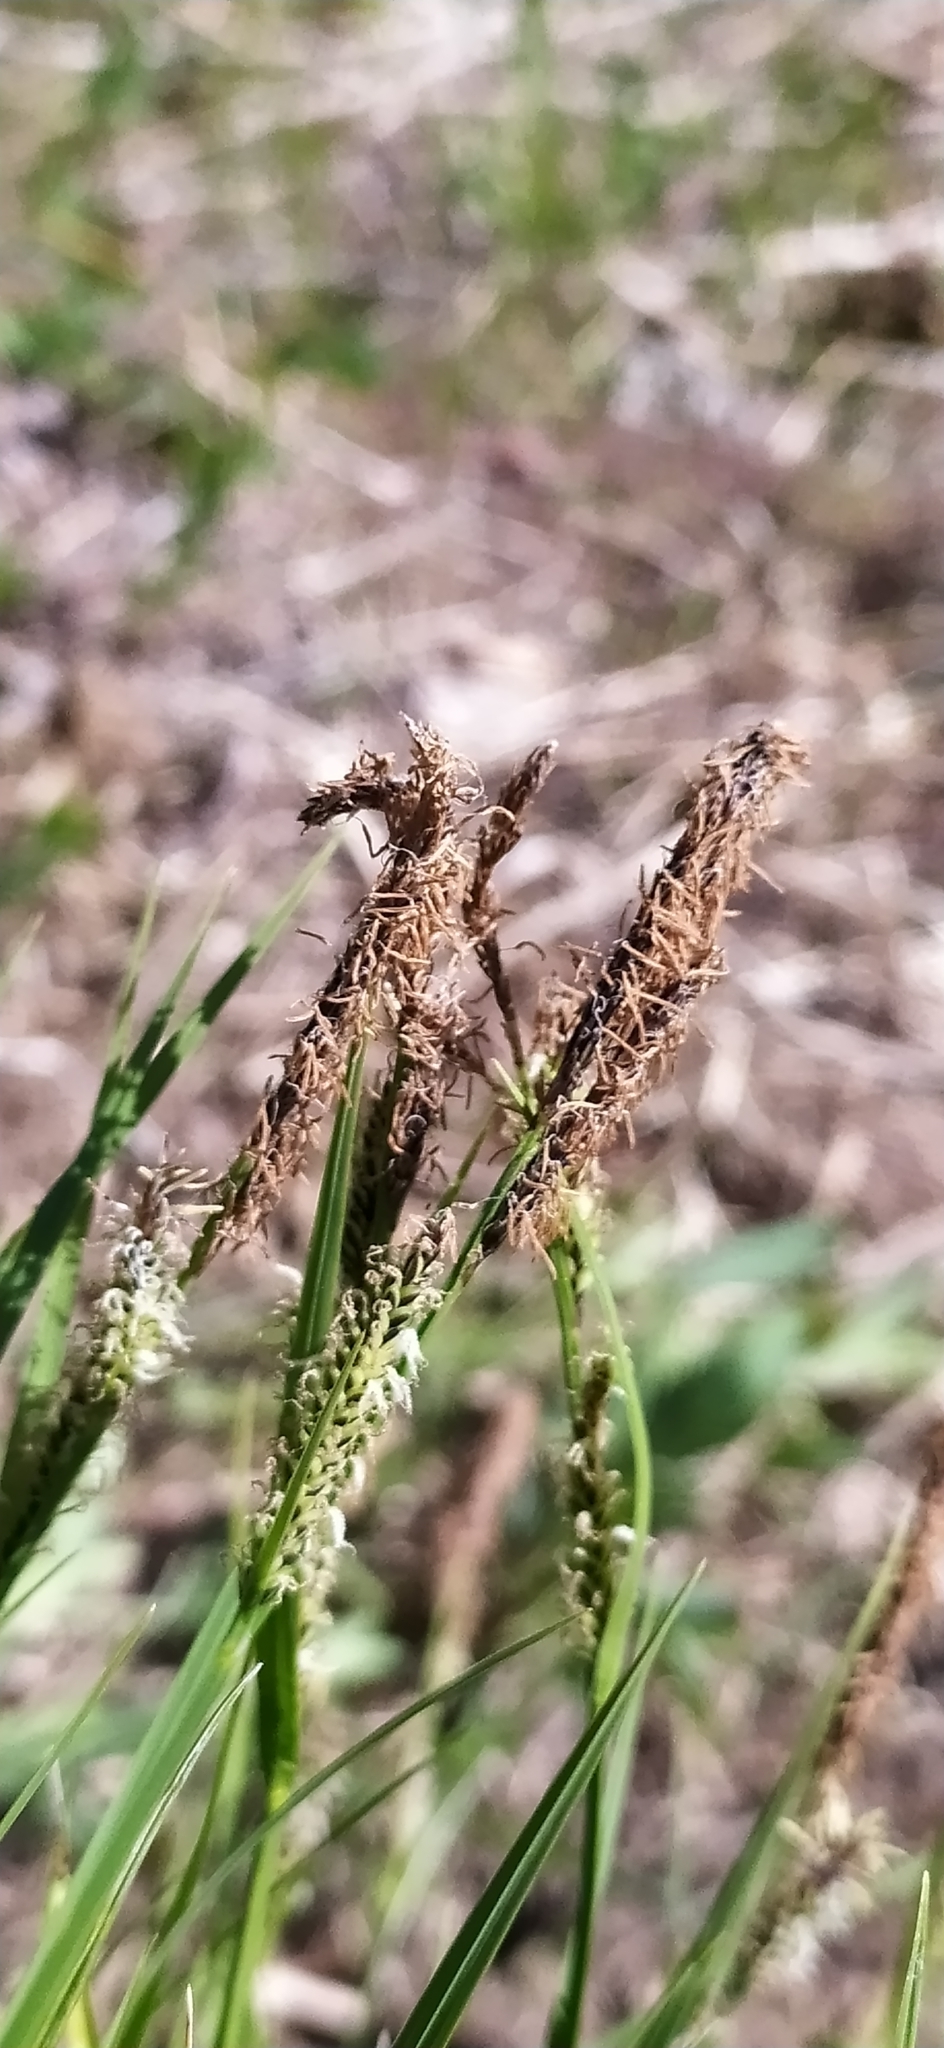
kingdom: Plantae
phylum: Tracheophyta
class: Liliopsida
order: Poales
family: Cyperaceae
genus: Carex
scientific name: Carex aquatilis
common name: Water sedge
